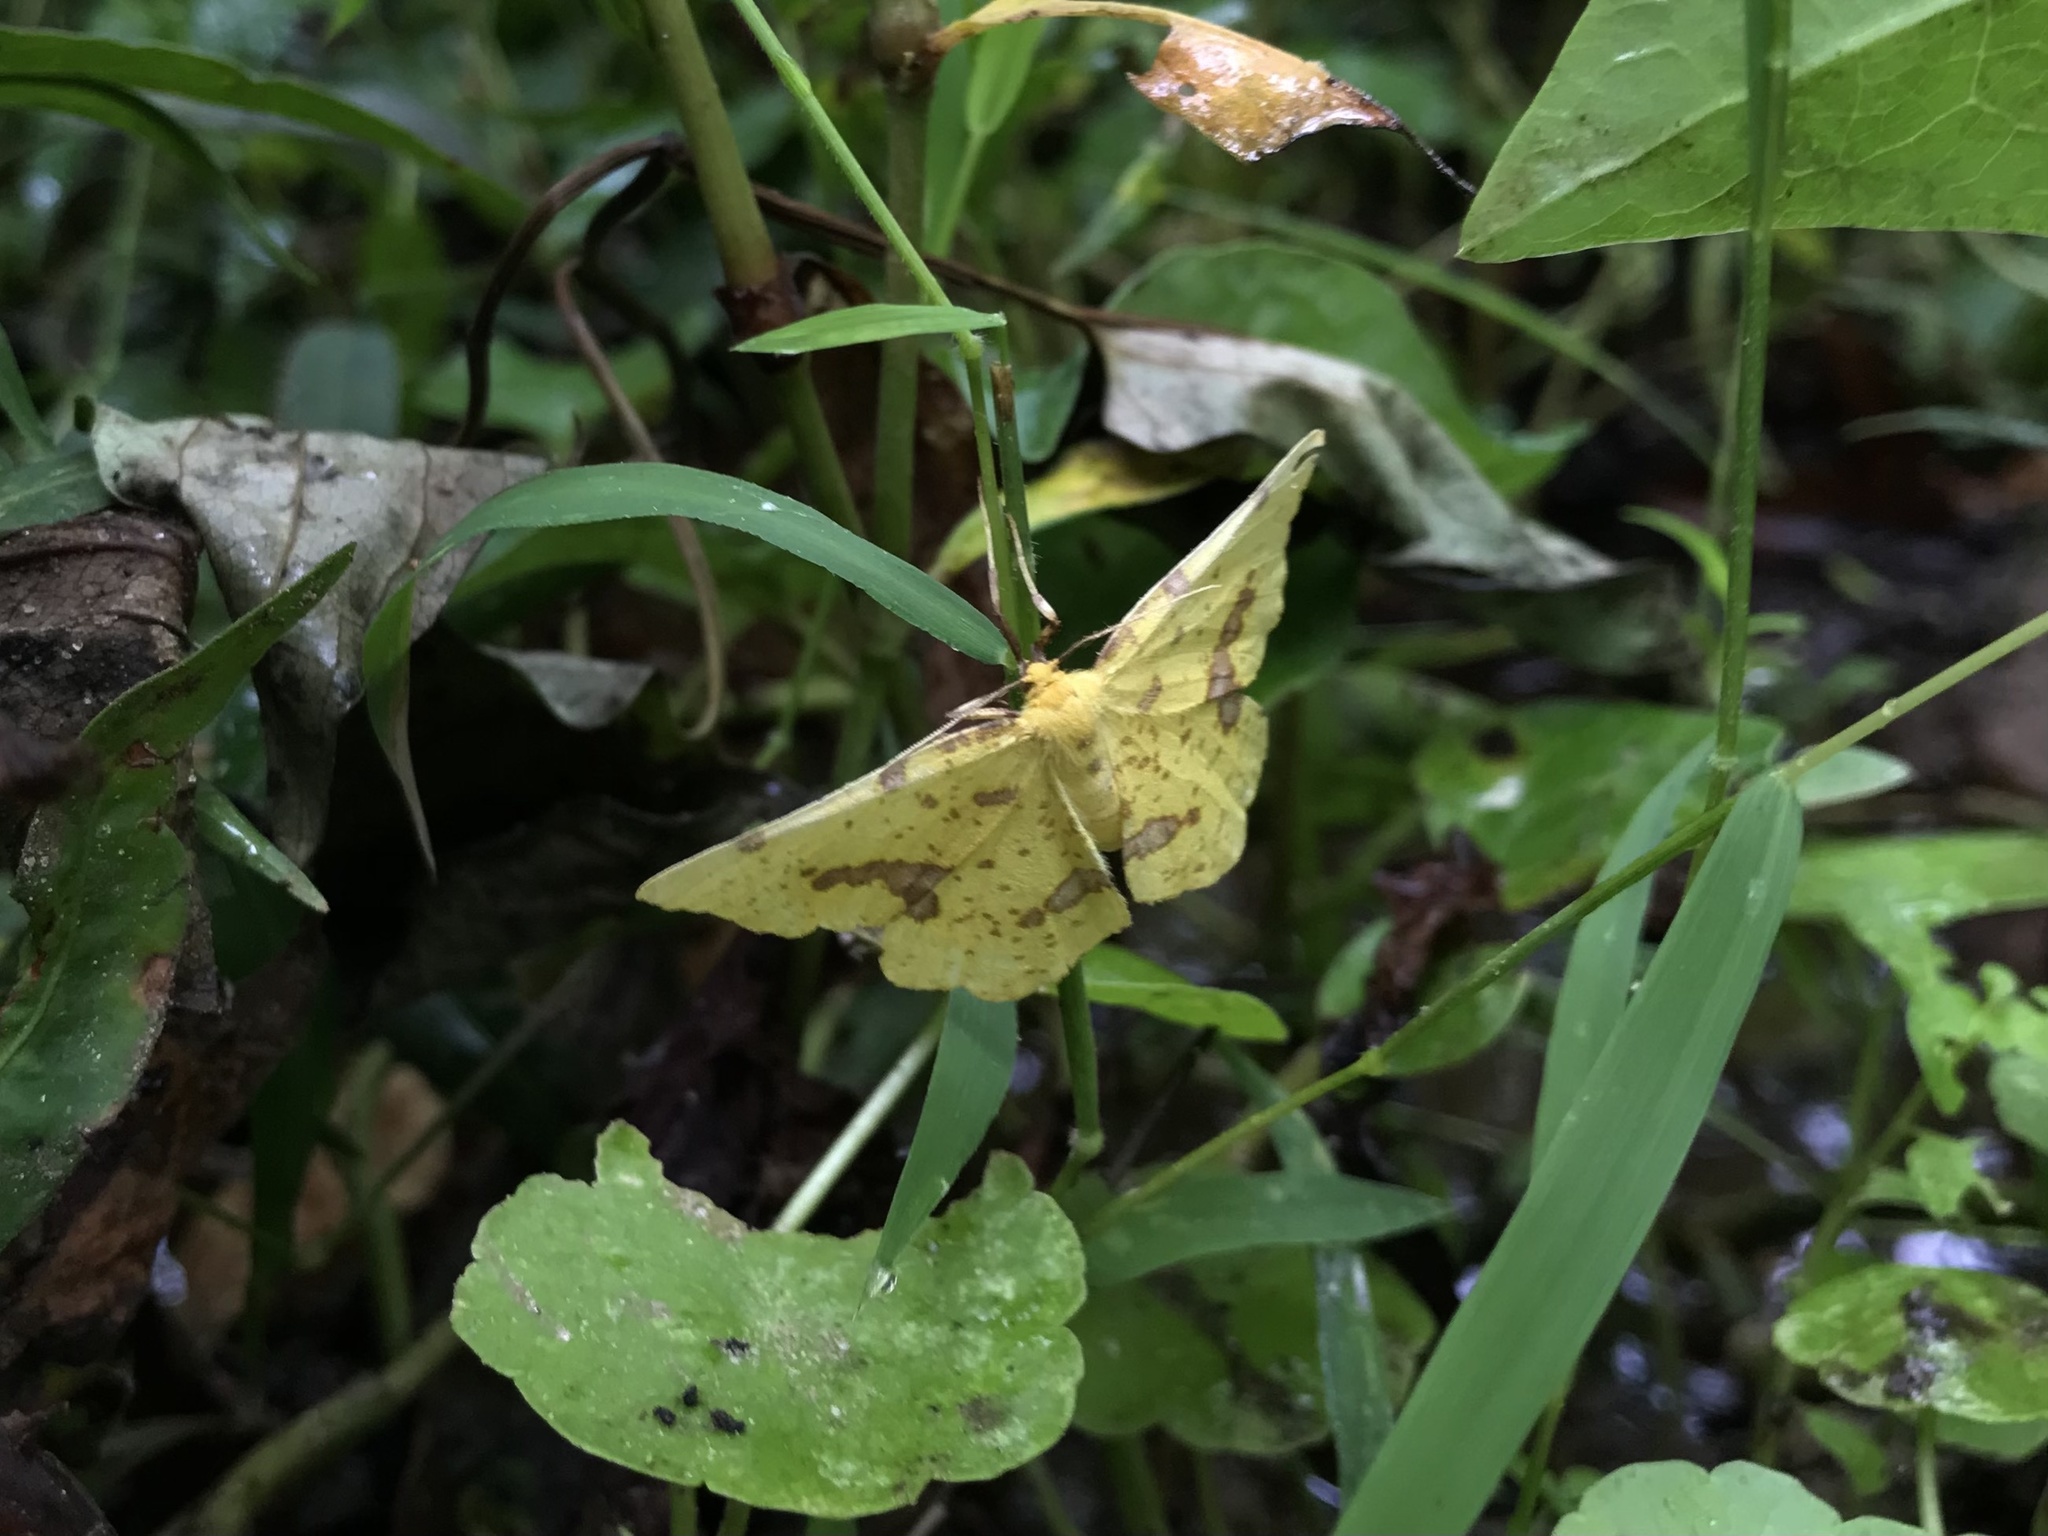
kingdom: Animalia
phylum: Arthropoda
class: Insecta
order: Lepidoptera
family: Geometridae
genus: Xanthotype
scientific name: Xanthotype
